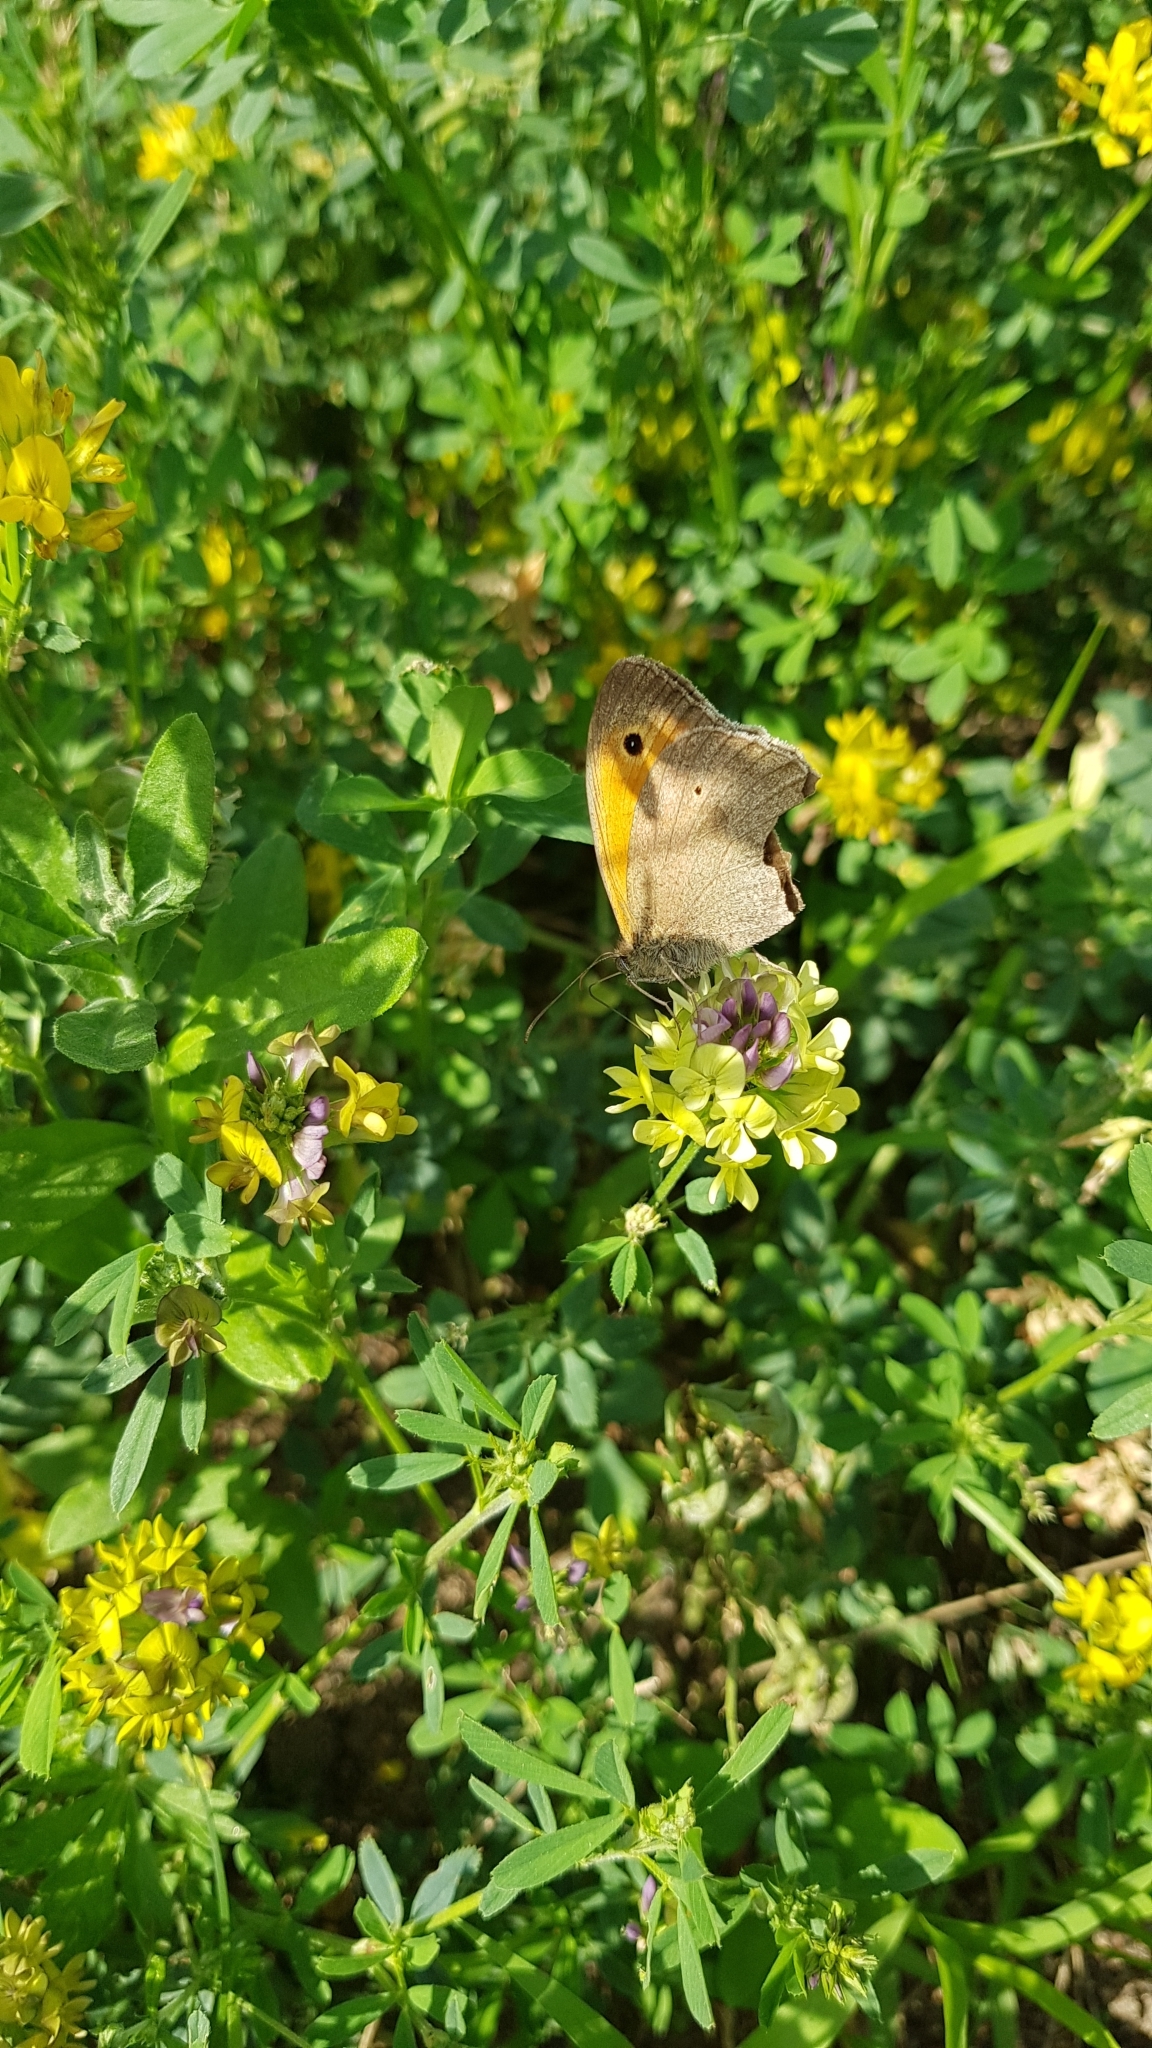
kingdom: Animalia
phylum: Arthropoda
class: Insecta
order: Lepidoptera
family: Nymphalidae
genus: Maniola
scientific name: Maniola jurtina
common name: Meadow brown
